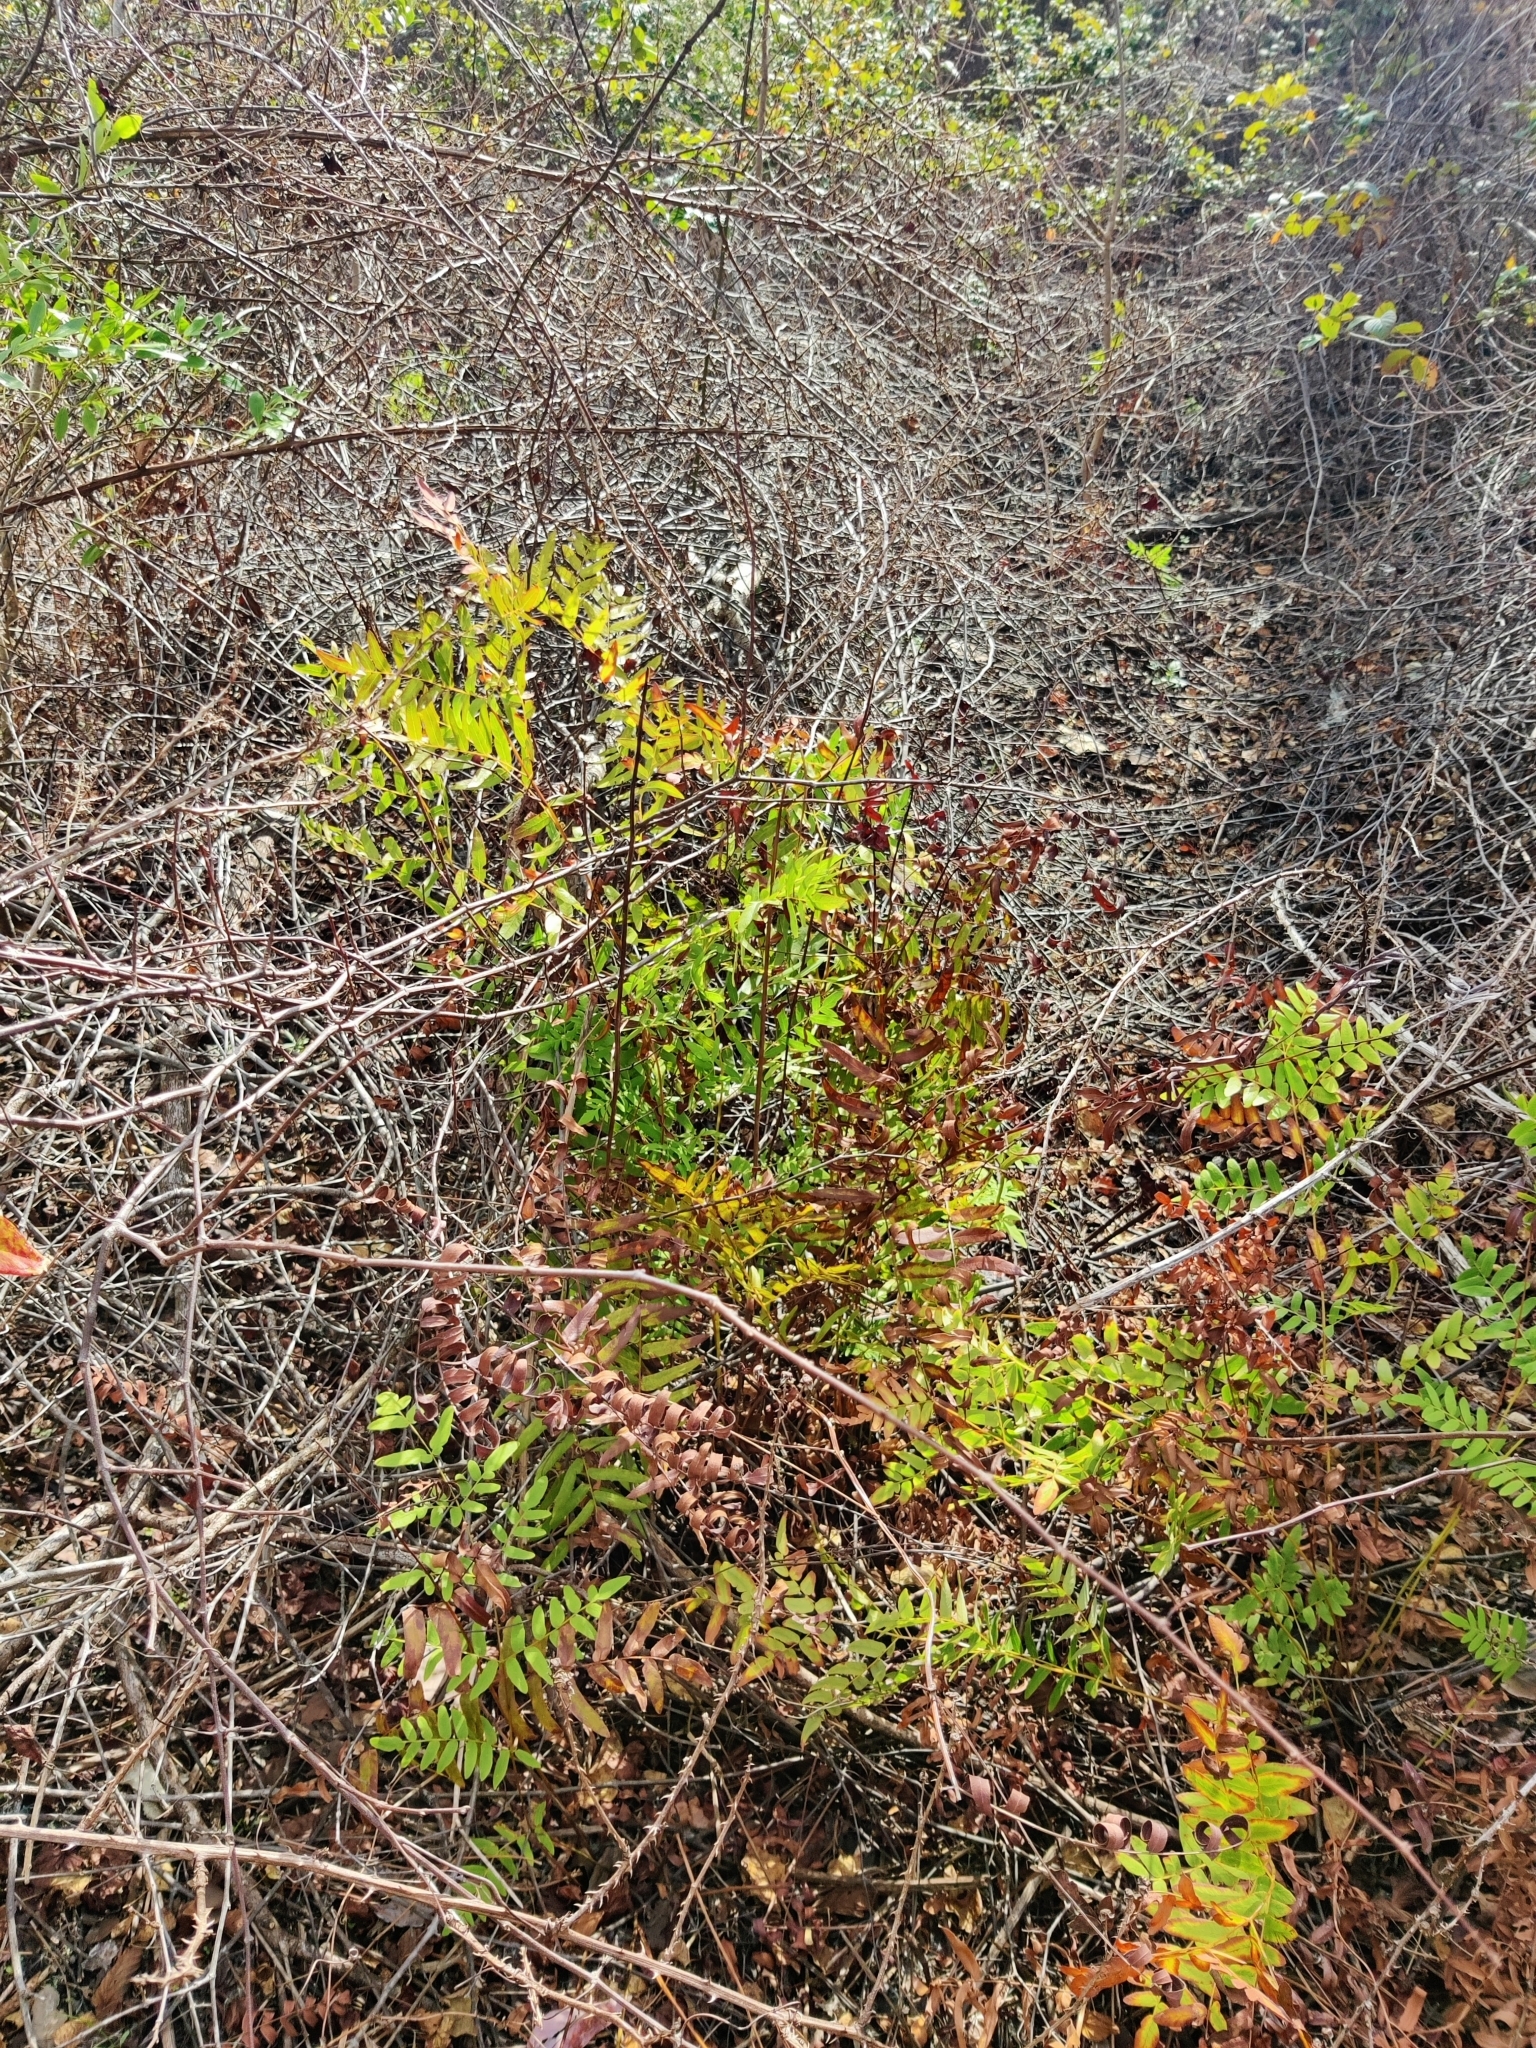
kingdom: Plantae
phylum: Tracheophyta
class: Polypodiopsida
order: Osmundales
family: Osmundaceae
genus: Osmunda
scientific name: Osmunda spectabilis
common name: American royal fern
